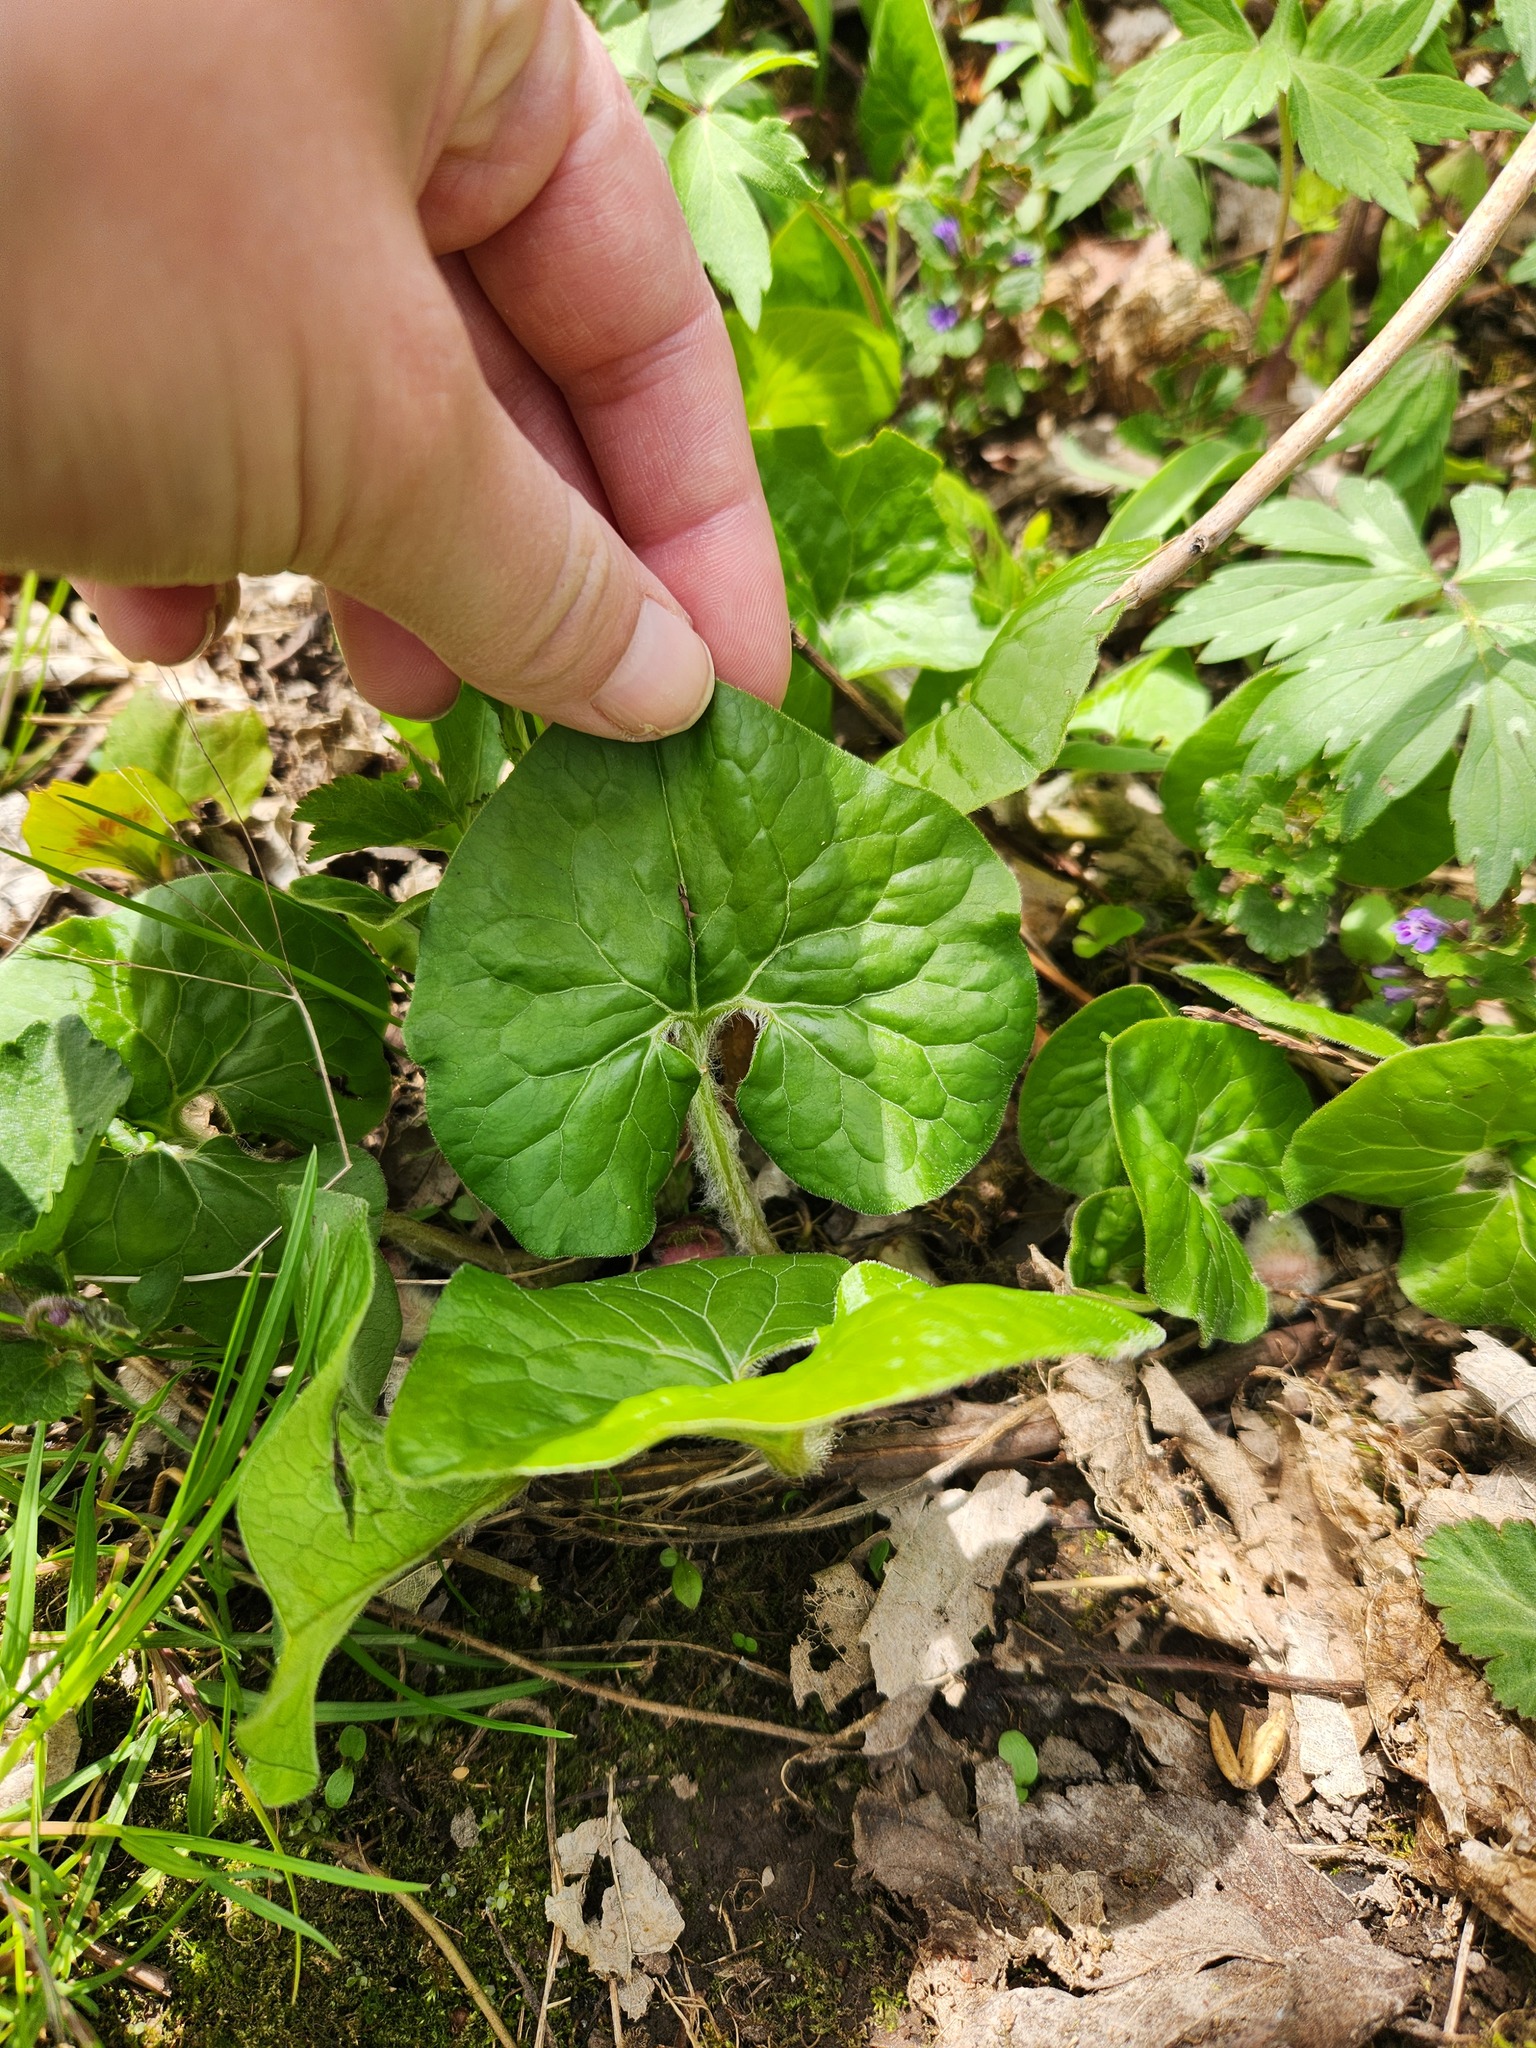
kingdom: Plantae
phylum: Tracheophyta
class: Magnoliopsida
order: Piperales
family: Aristolochiaceae
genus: Asarum
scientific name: Asarum canadense
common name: Wild ginger
